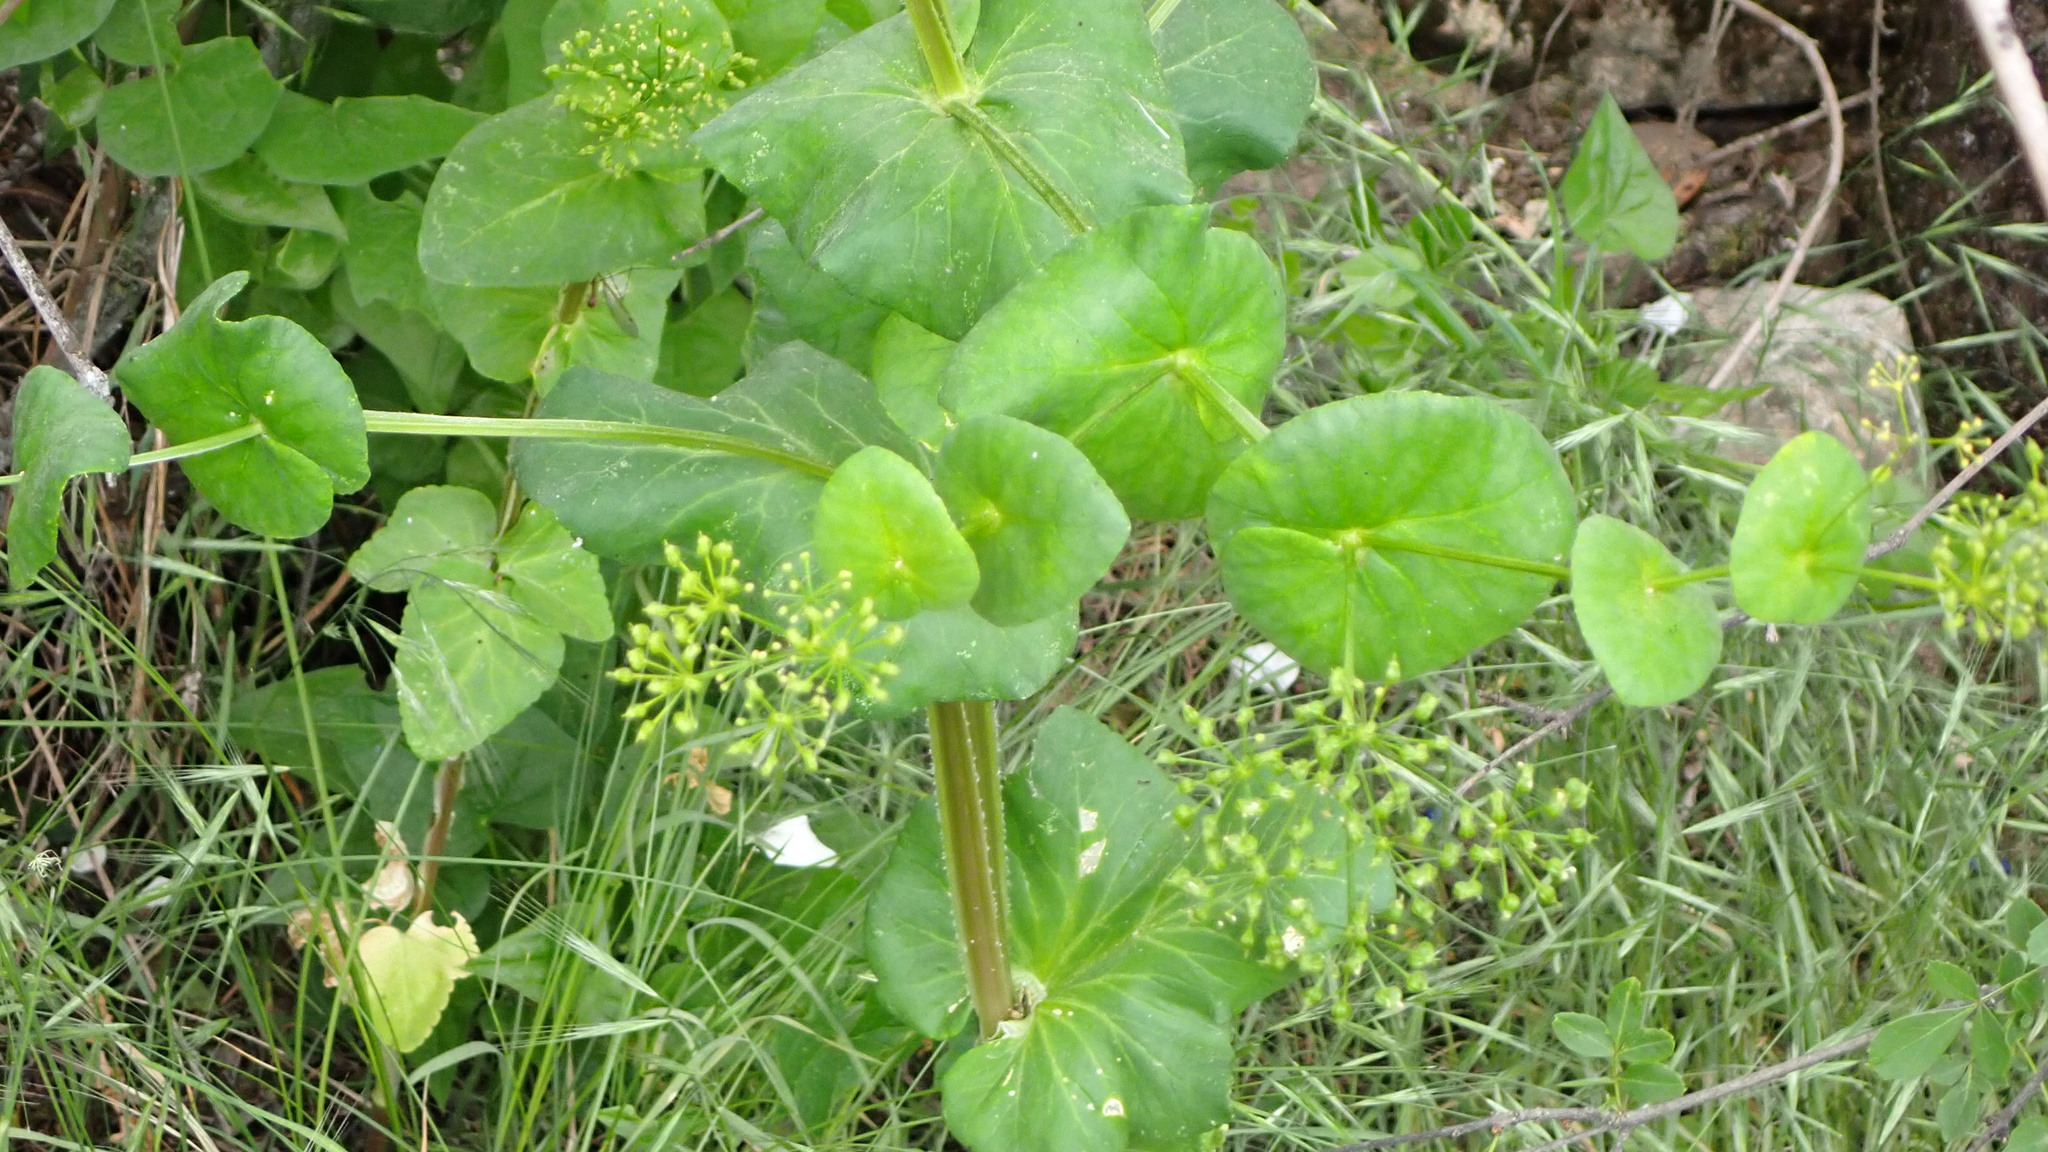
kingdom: Plantae
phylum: Tracheophyta
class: Magnoliopsida
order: Apiales
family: Apiaceae
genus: Smyrnium
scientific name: Smyrnium perfoliatum
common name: Perfoliate alexanders
